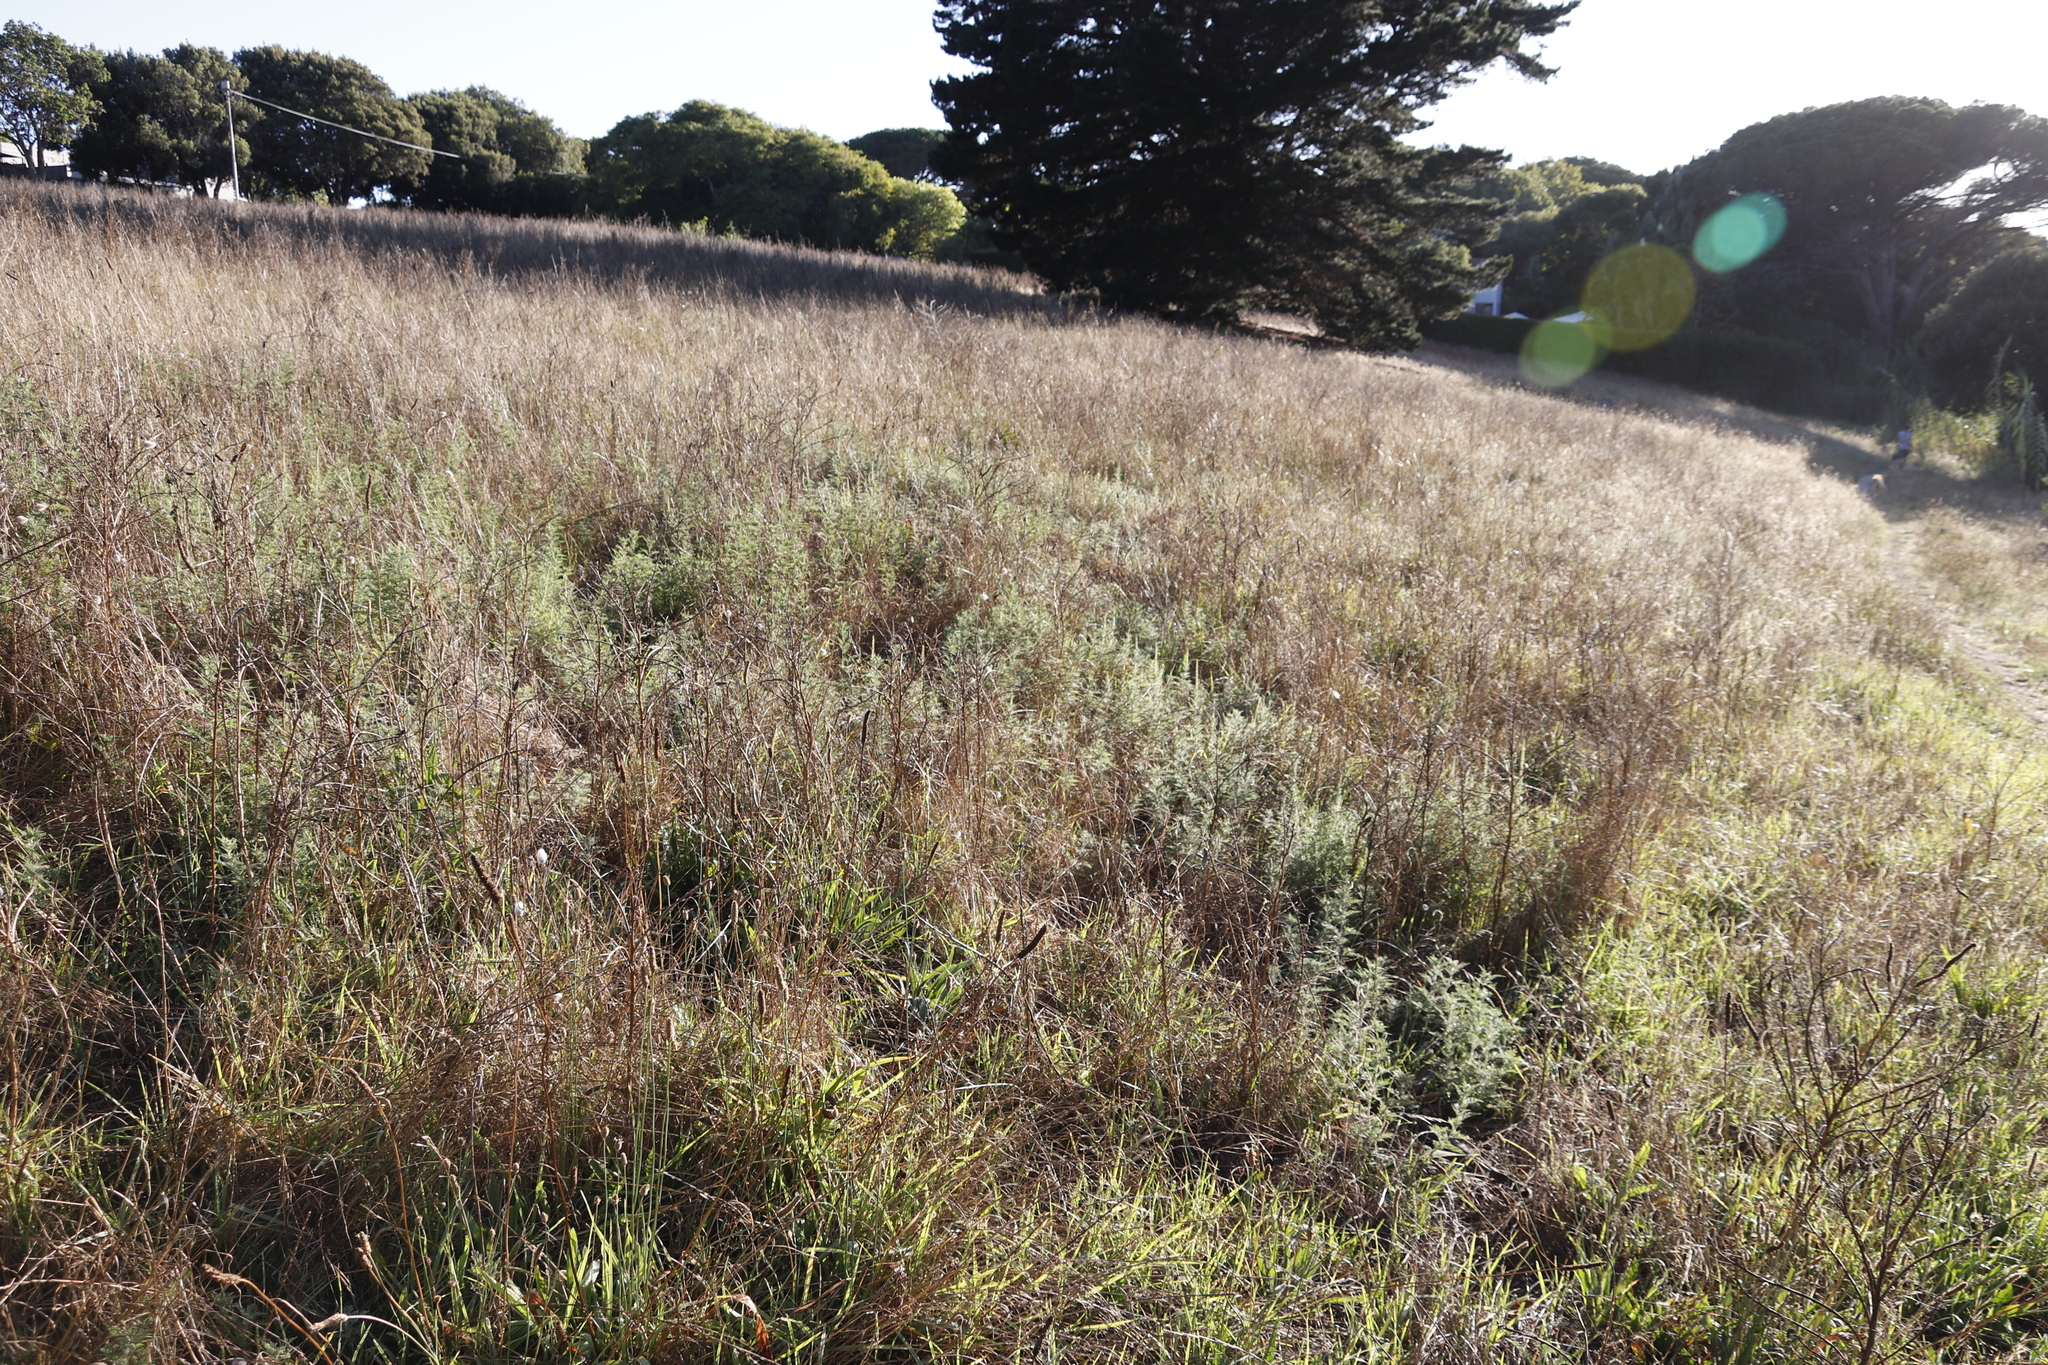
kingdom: Plantae
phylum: Tracheophyta
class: Magnoliopsida
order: Asterales
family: Asteraceae
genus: Ambrosia
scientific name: Ambrosia tenuifolia
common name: Lacy ambrosia
